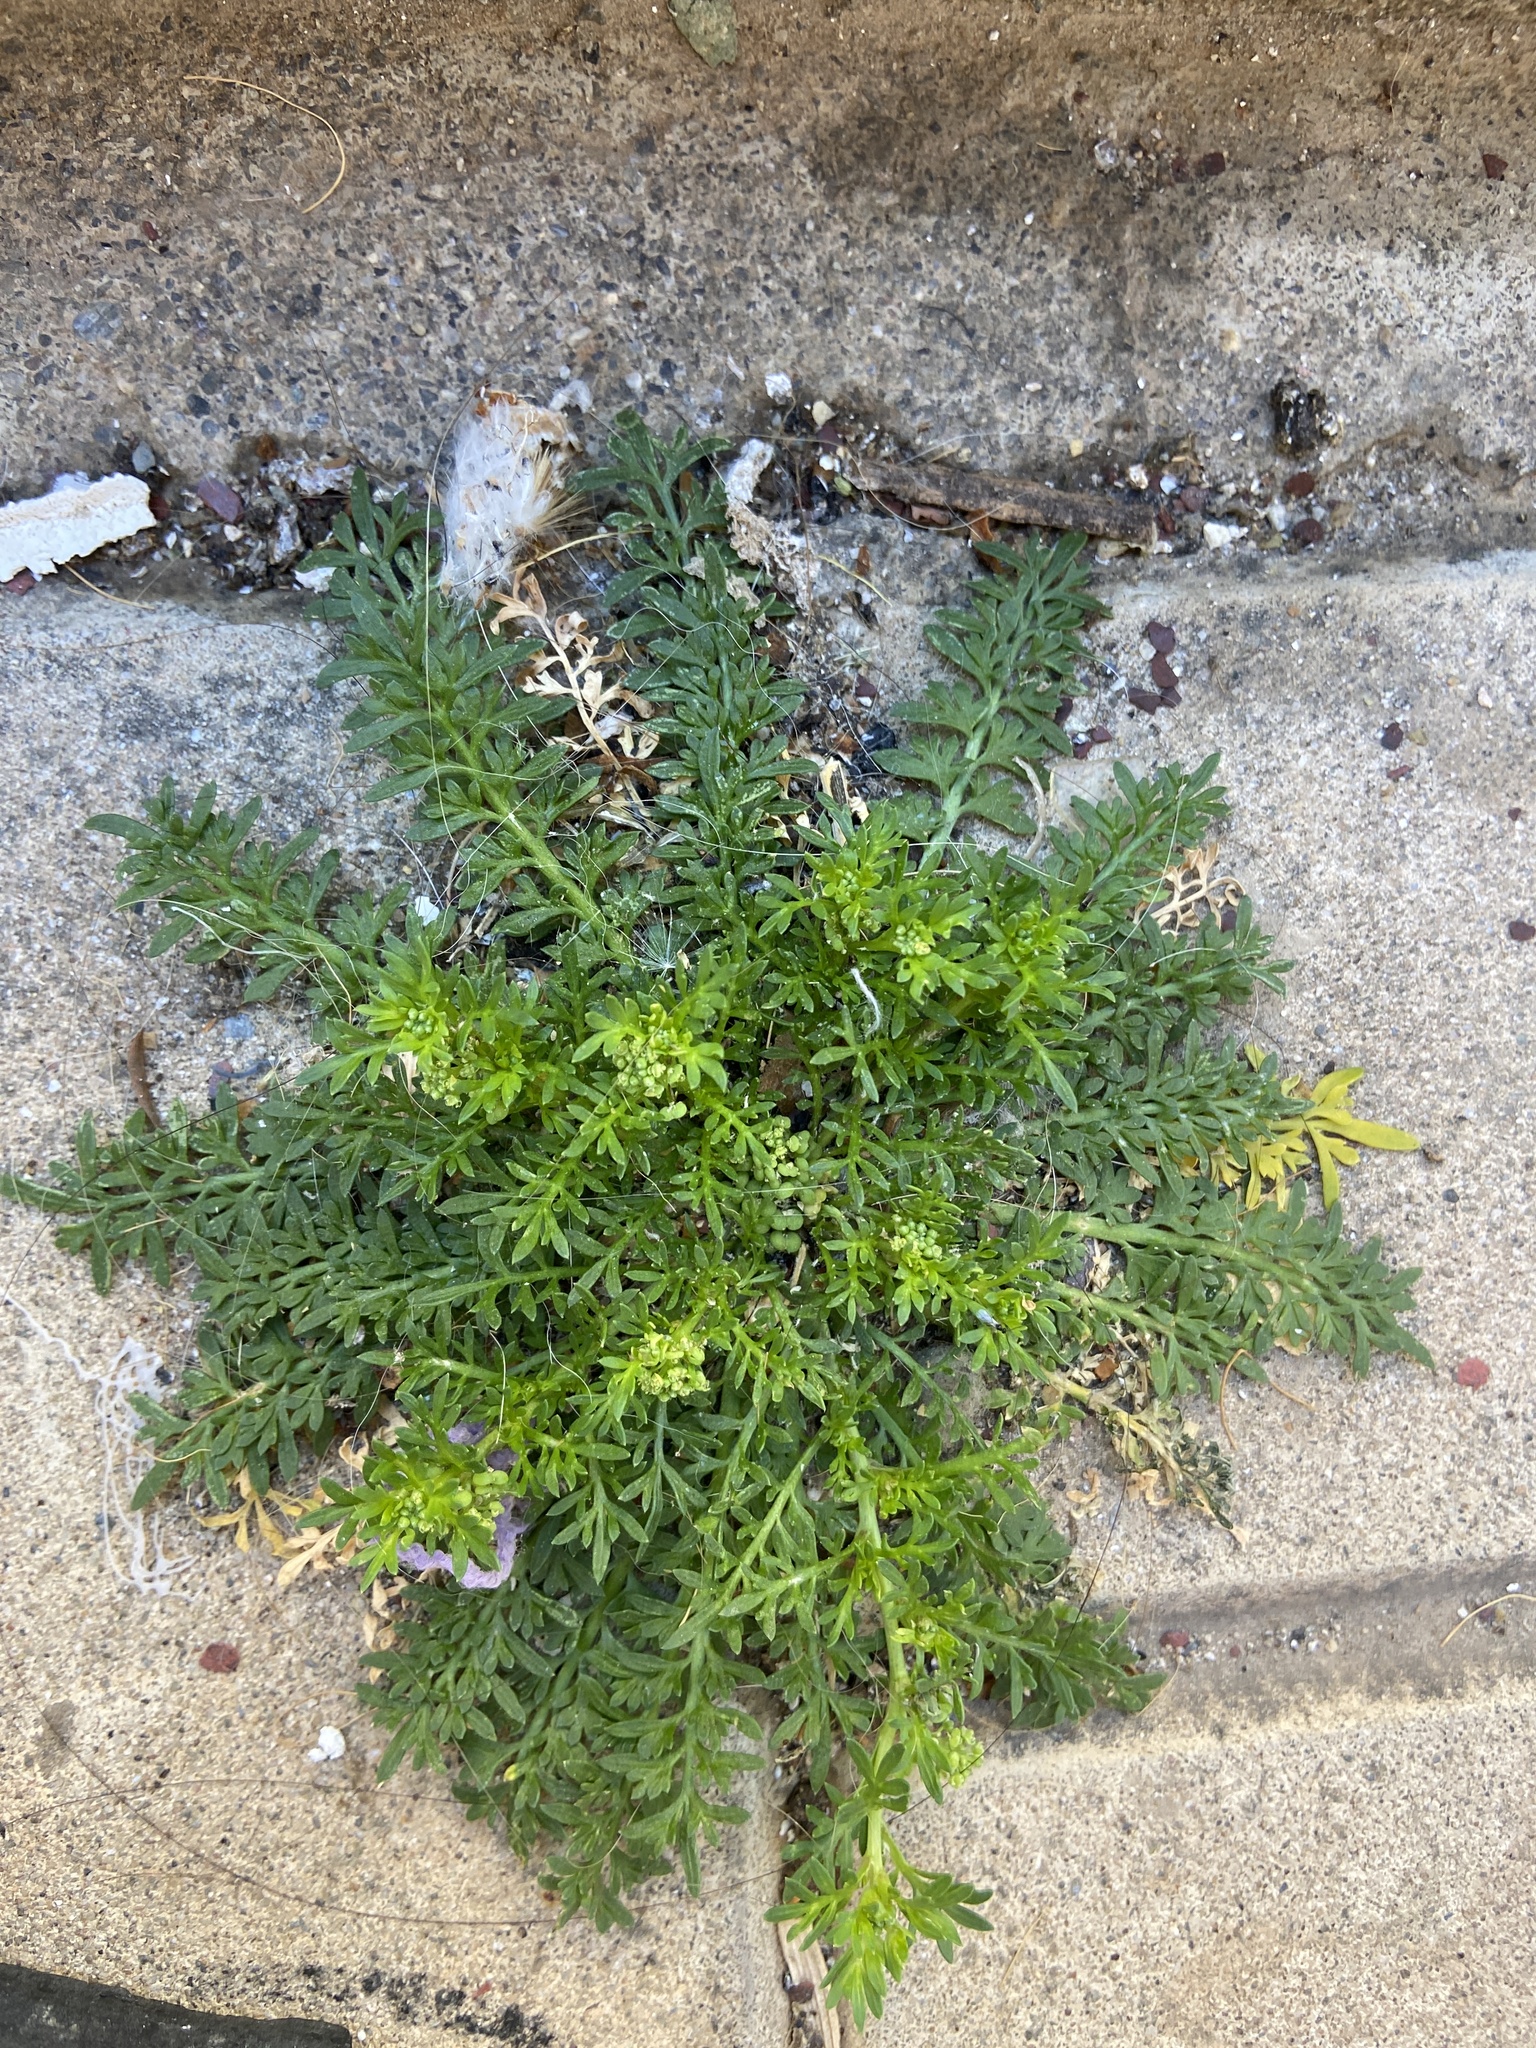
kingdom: Plantae
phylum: Tracheophyta
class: Magnoliopsida
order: Brassicales
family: Brassicaceae
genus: Lepidium
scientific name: Lepidium didymum
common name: Lesser swinecress
